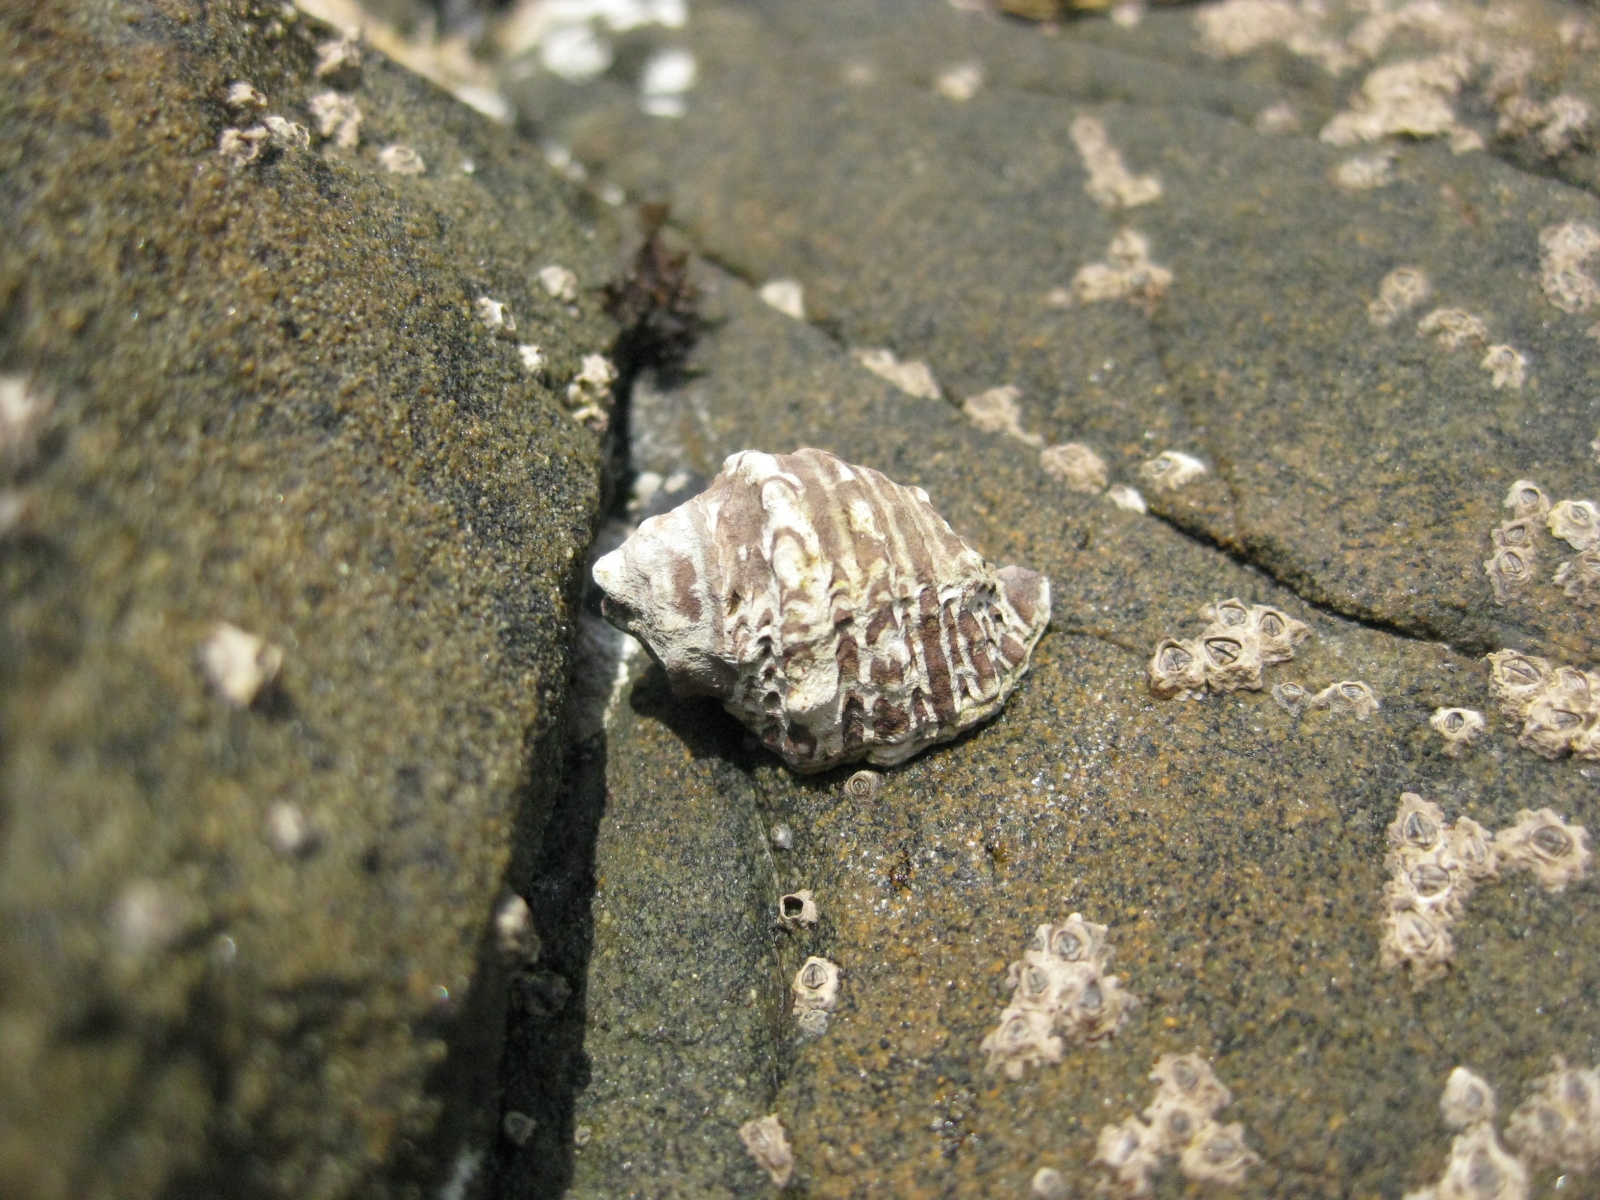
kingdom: Animalia
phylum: Mollusca
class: Gastropoda
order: Neogastropoda
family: Muricidae
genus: Haustrum
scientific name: Haustrum scobina
